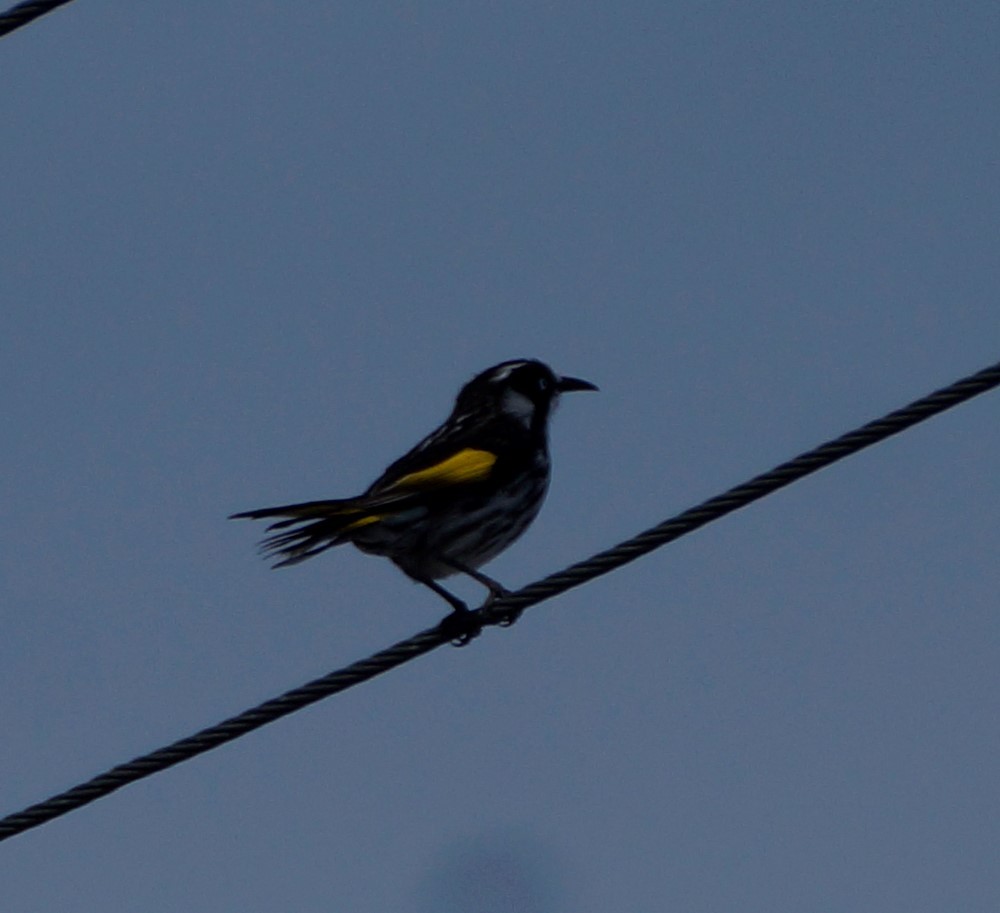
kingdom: Animalia
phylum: Chordata
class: Aves
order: Passeriformes
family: Meliphagidae
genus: Phylidonyris
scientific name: Phylidonyris novaehollandiae
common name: New holland honeyeater
